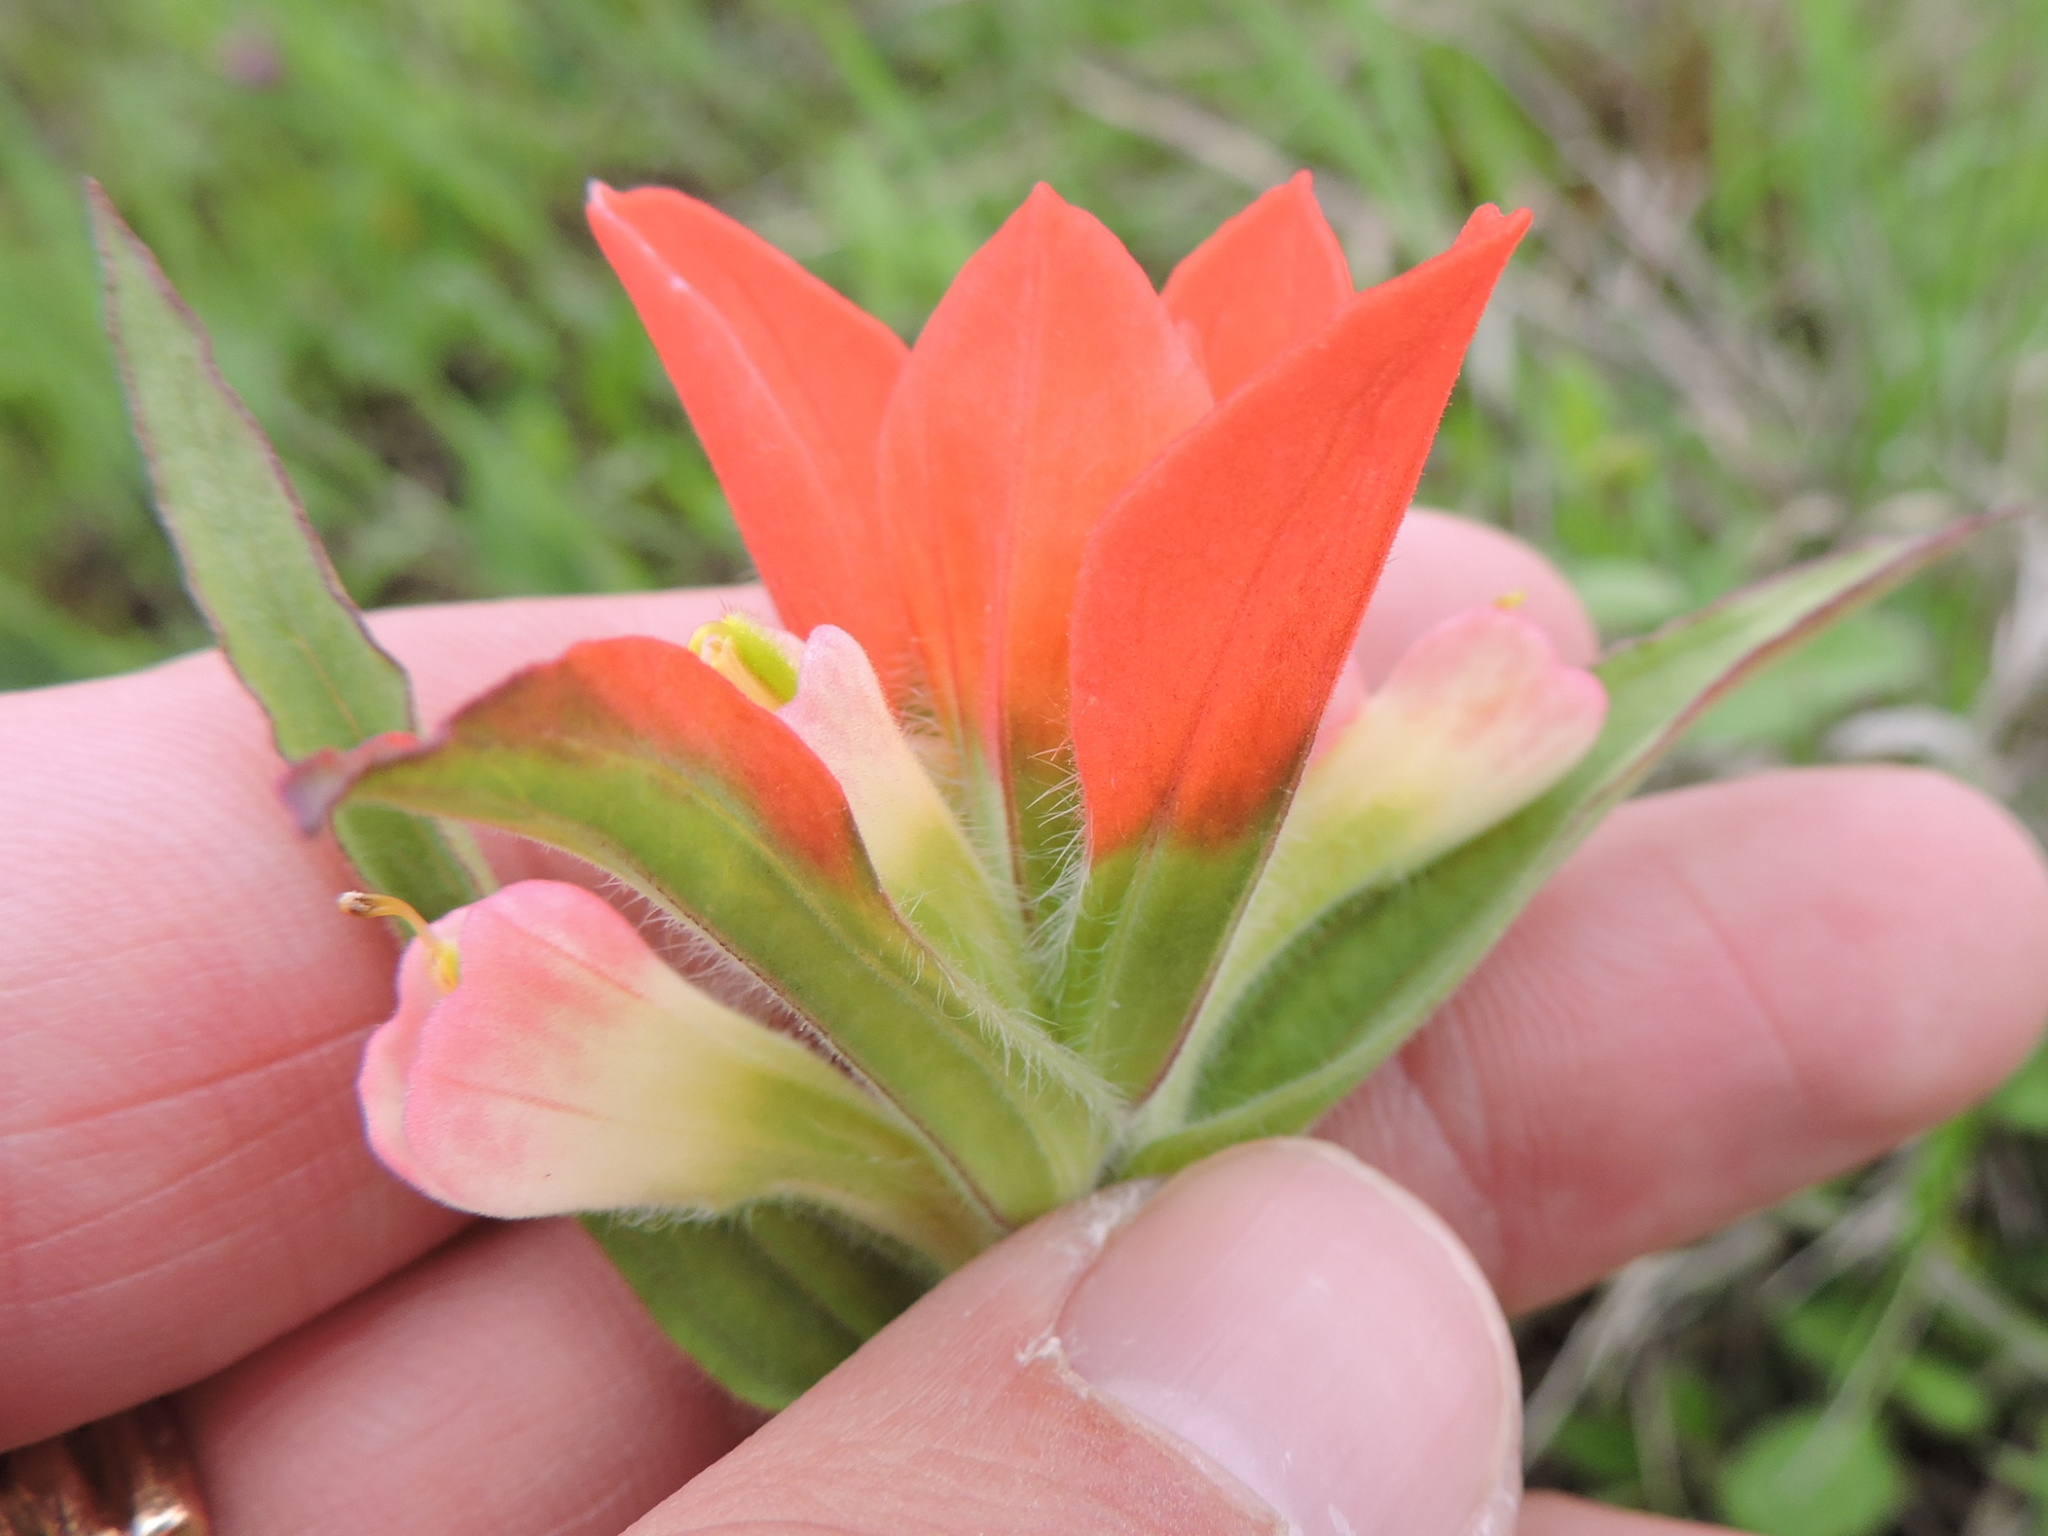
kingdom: Plantae
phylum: Tracheophyta
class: Magnoliopsida
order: Lamiales
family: Orobanchaceae
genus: Castilleja
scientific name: Castilleja indivisa
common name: Texas paintbrush
